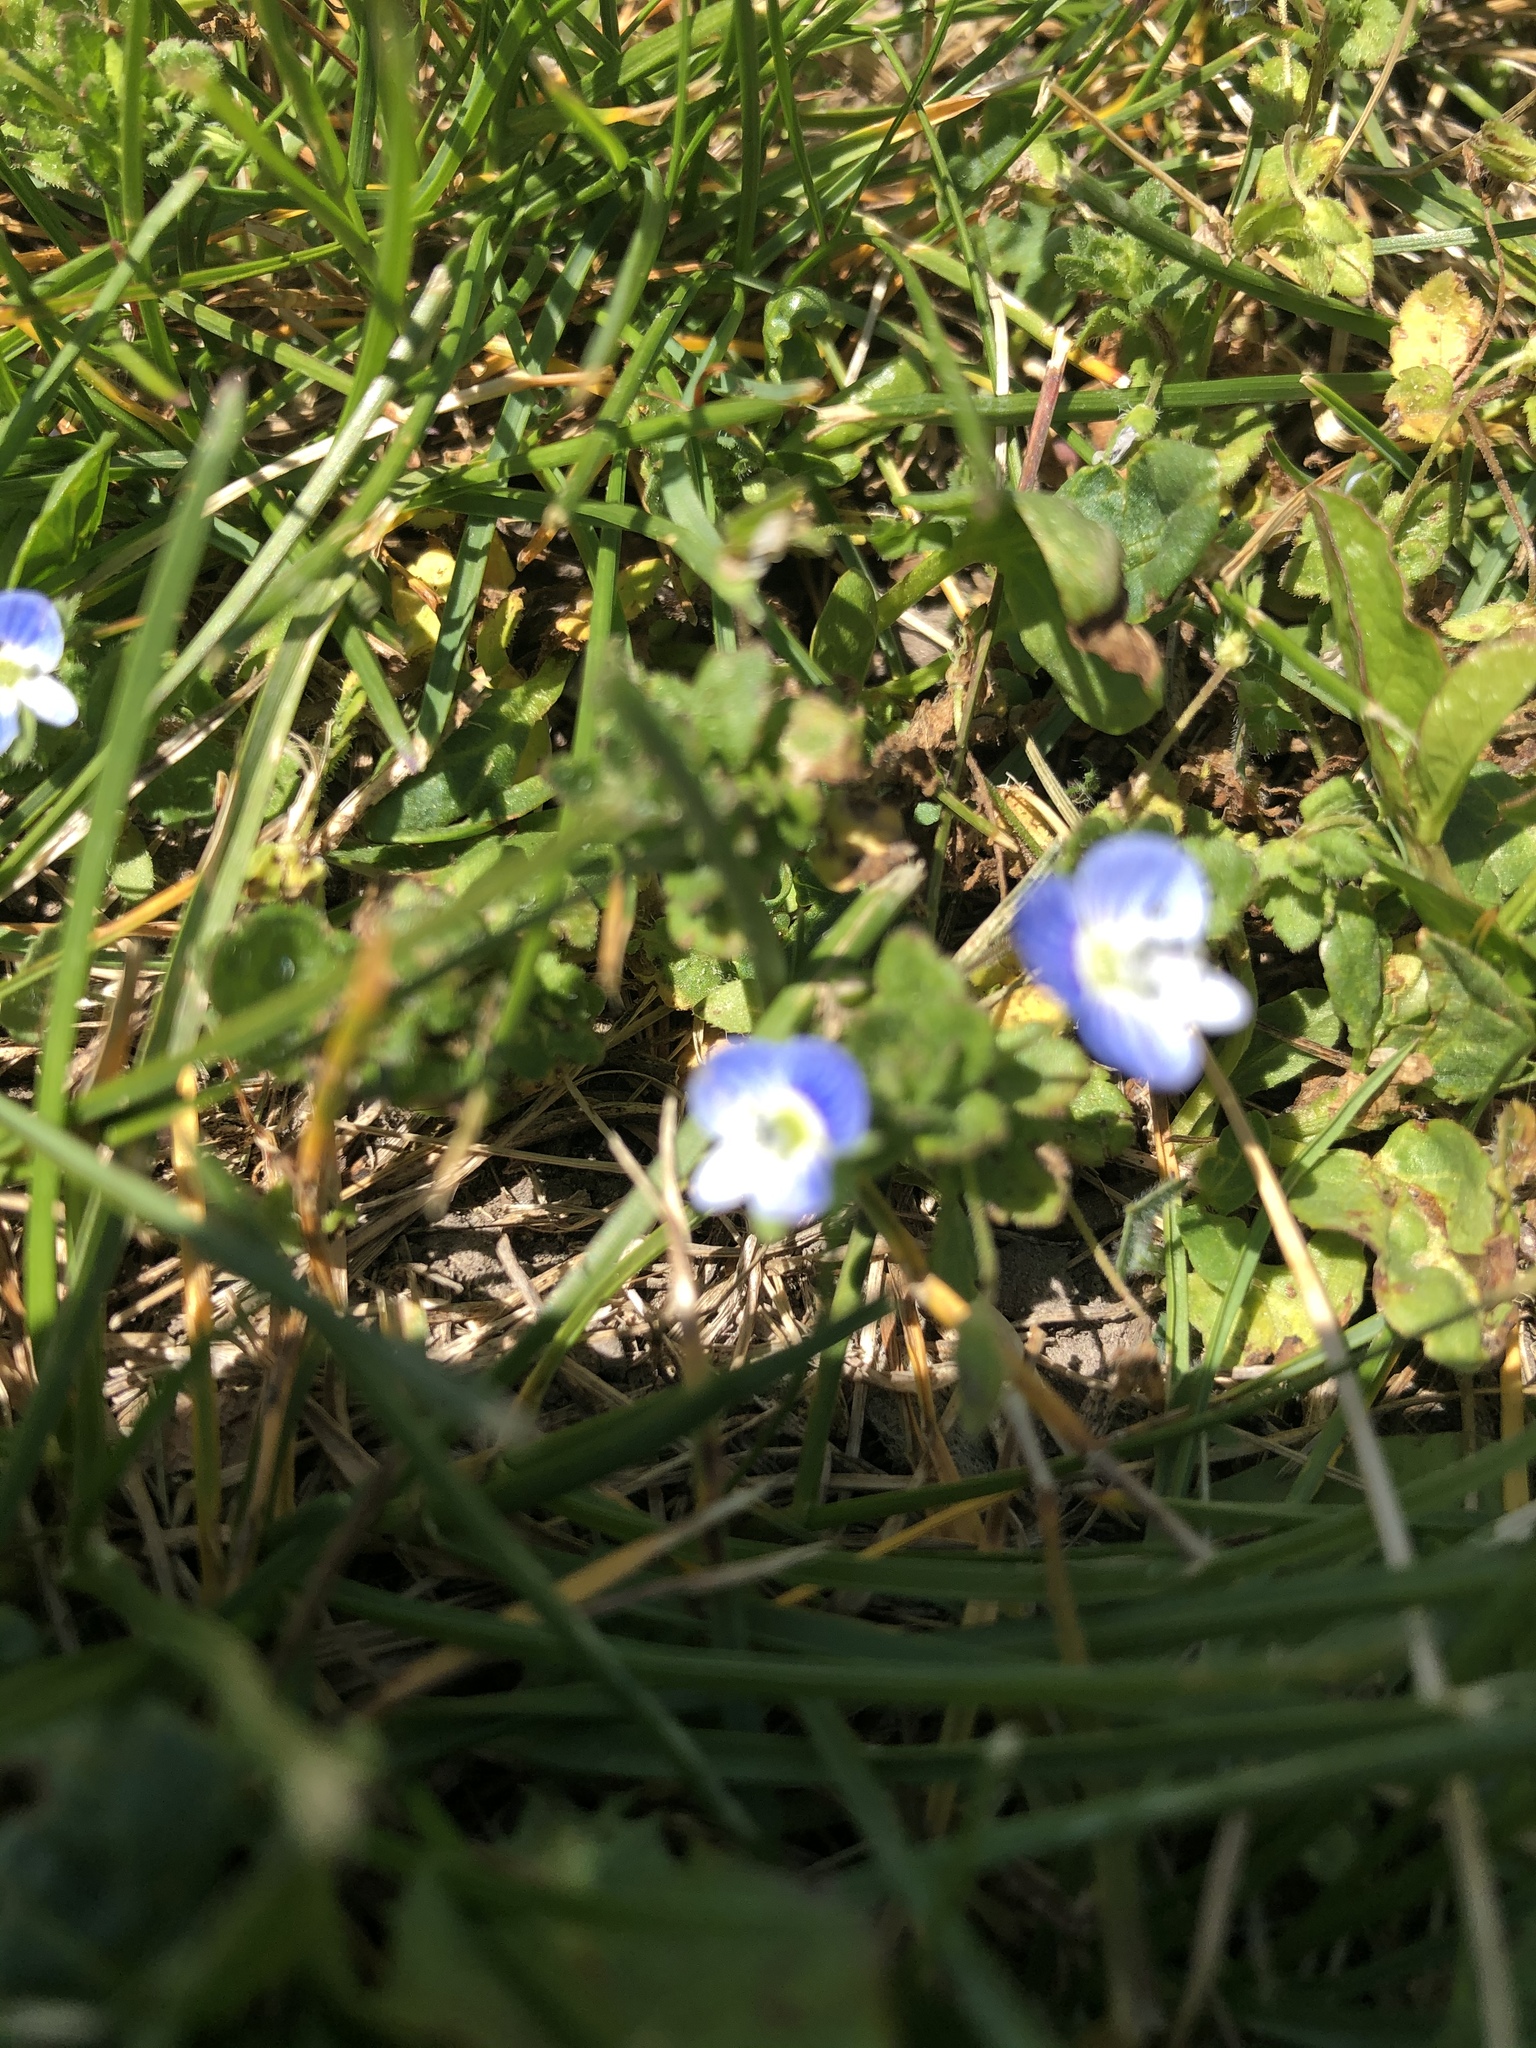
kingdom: Plantae
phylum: Tracheophyta
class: Magnoliopsida
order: Lamiales
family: Plantaginaceae
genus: Veronica
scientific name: Veronica persica
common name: Common field-speedwell
